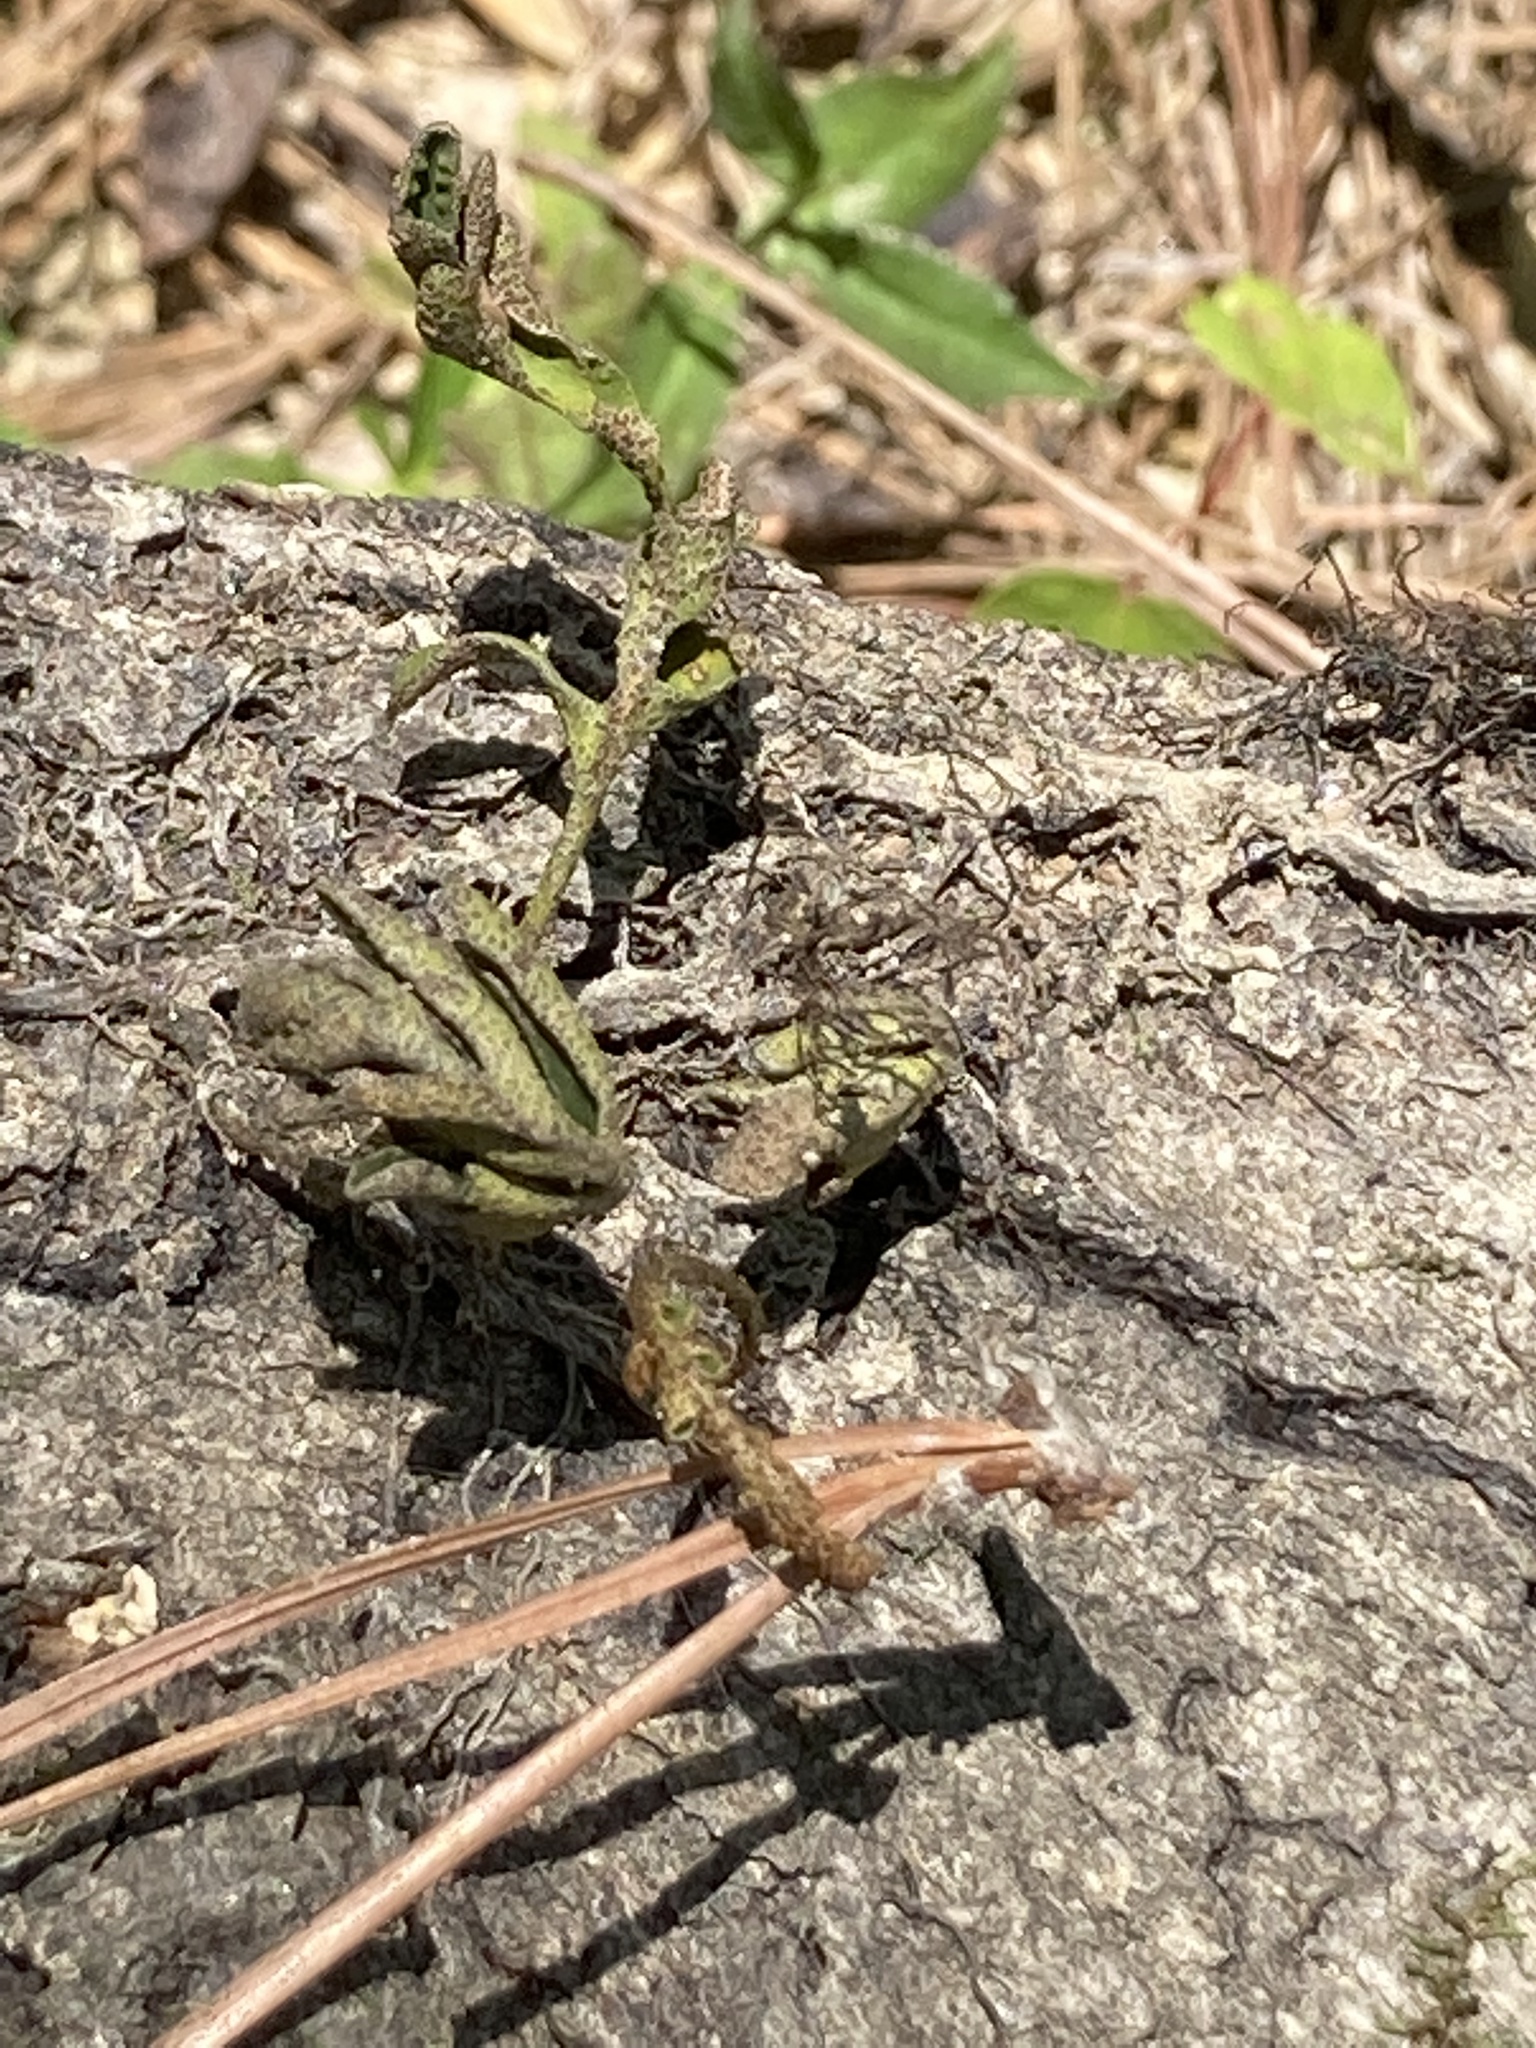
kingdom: Plantae
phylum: Tracheophyta
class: Polypodiopsida
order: Polypodiales
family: Polypodiaceae
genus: Pleopeltis
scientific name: Pleopeltis michauxiana
